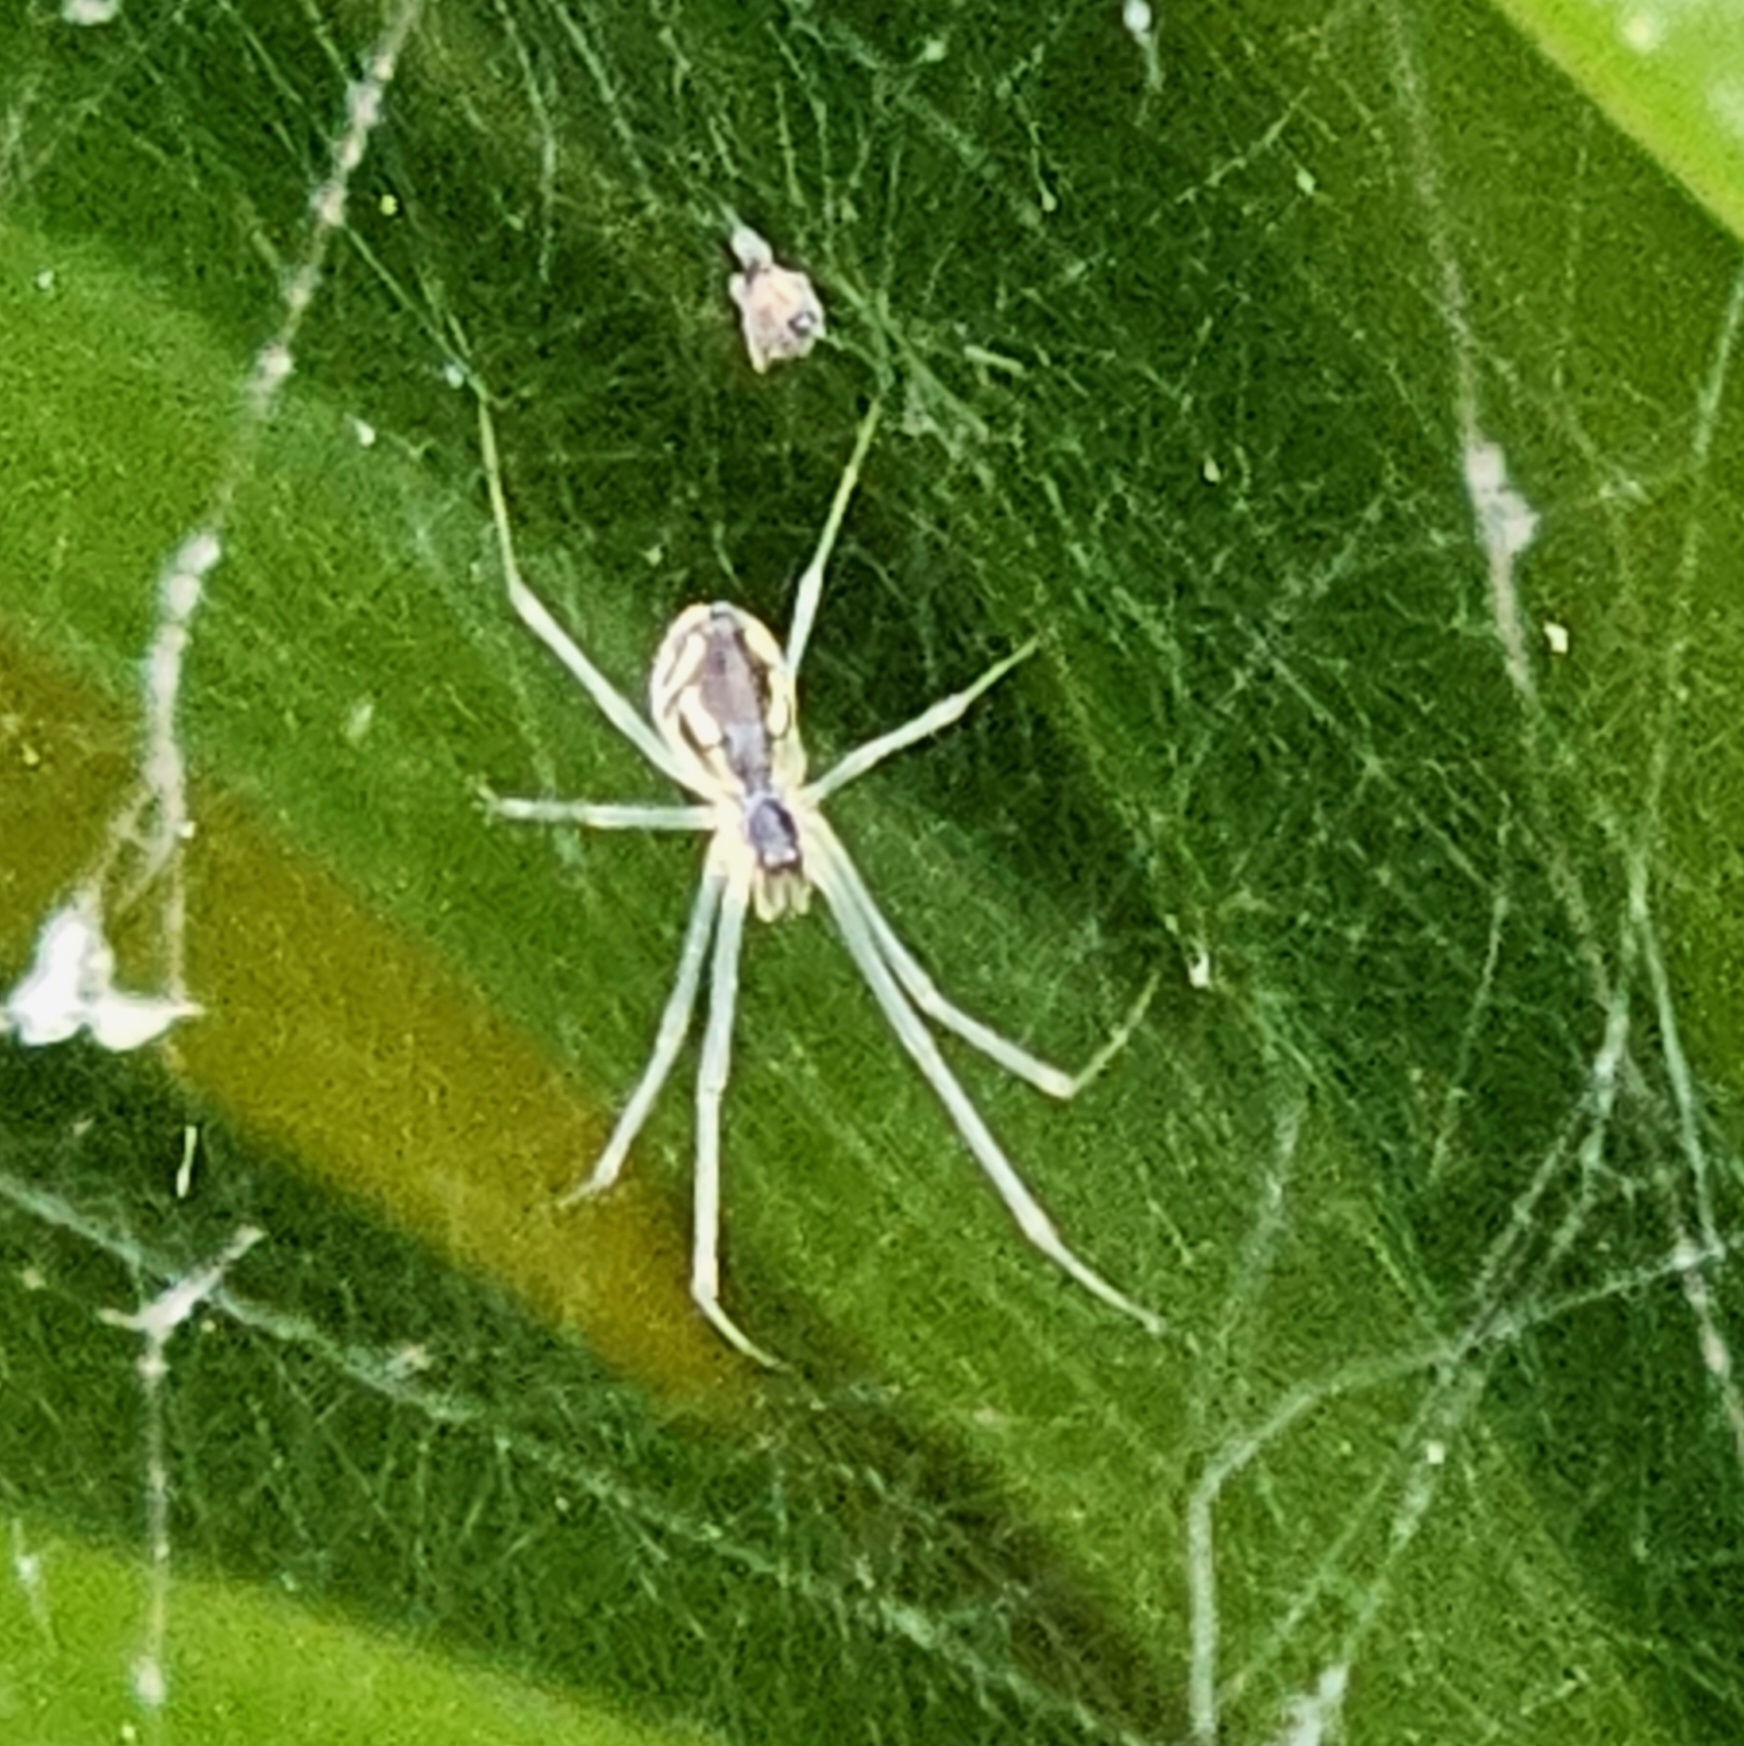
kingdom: Animalia
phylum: Arthropoda
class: Arachnida
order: Araneae
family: Linyphiidae
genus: Neriene
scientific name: Neriene radiata
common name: Filmy dome spider
